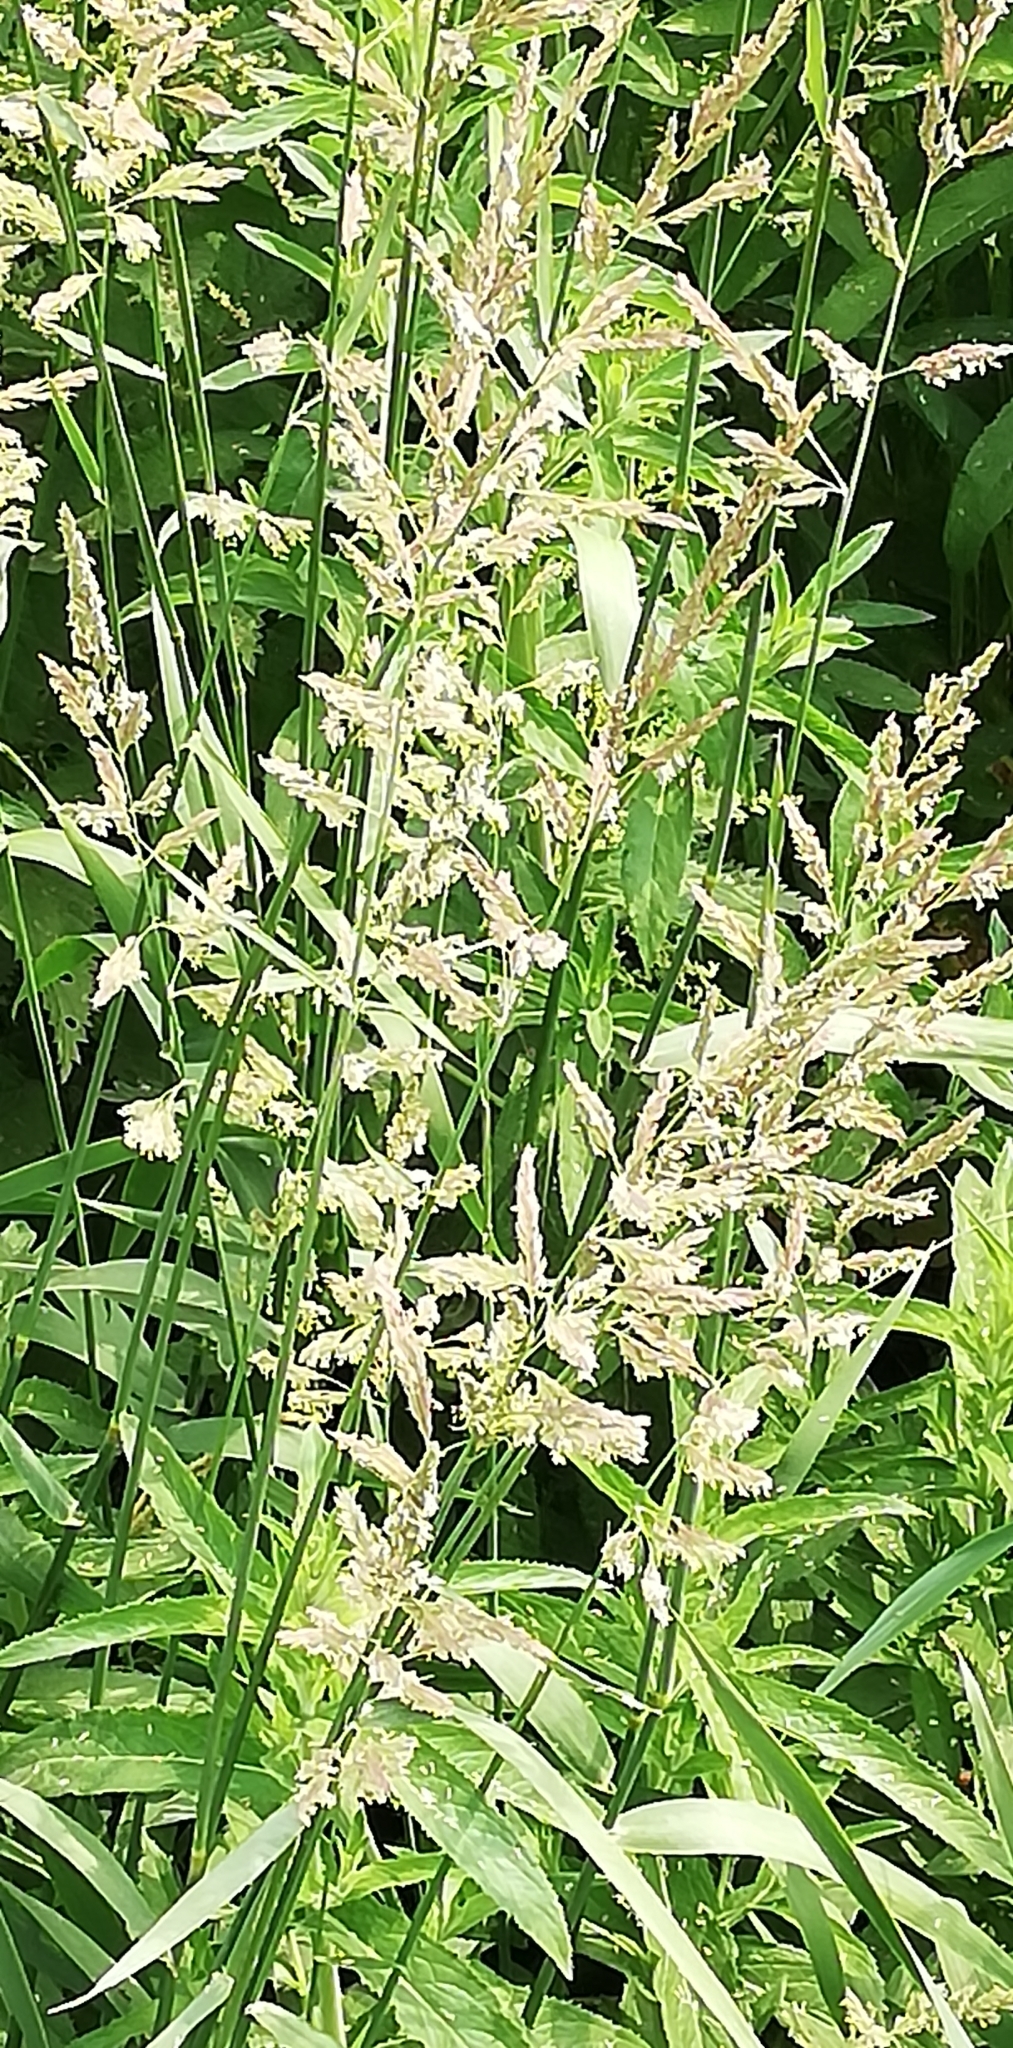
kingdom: Plantae
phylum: Tracheophyta
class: Liliopsida
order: Poales
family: Poaceae
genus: Phalaris
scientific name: Phalaris arundinacea
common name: Reed canary-grass
